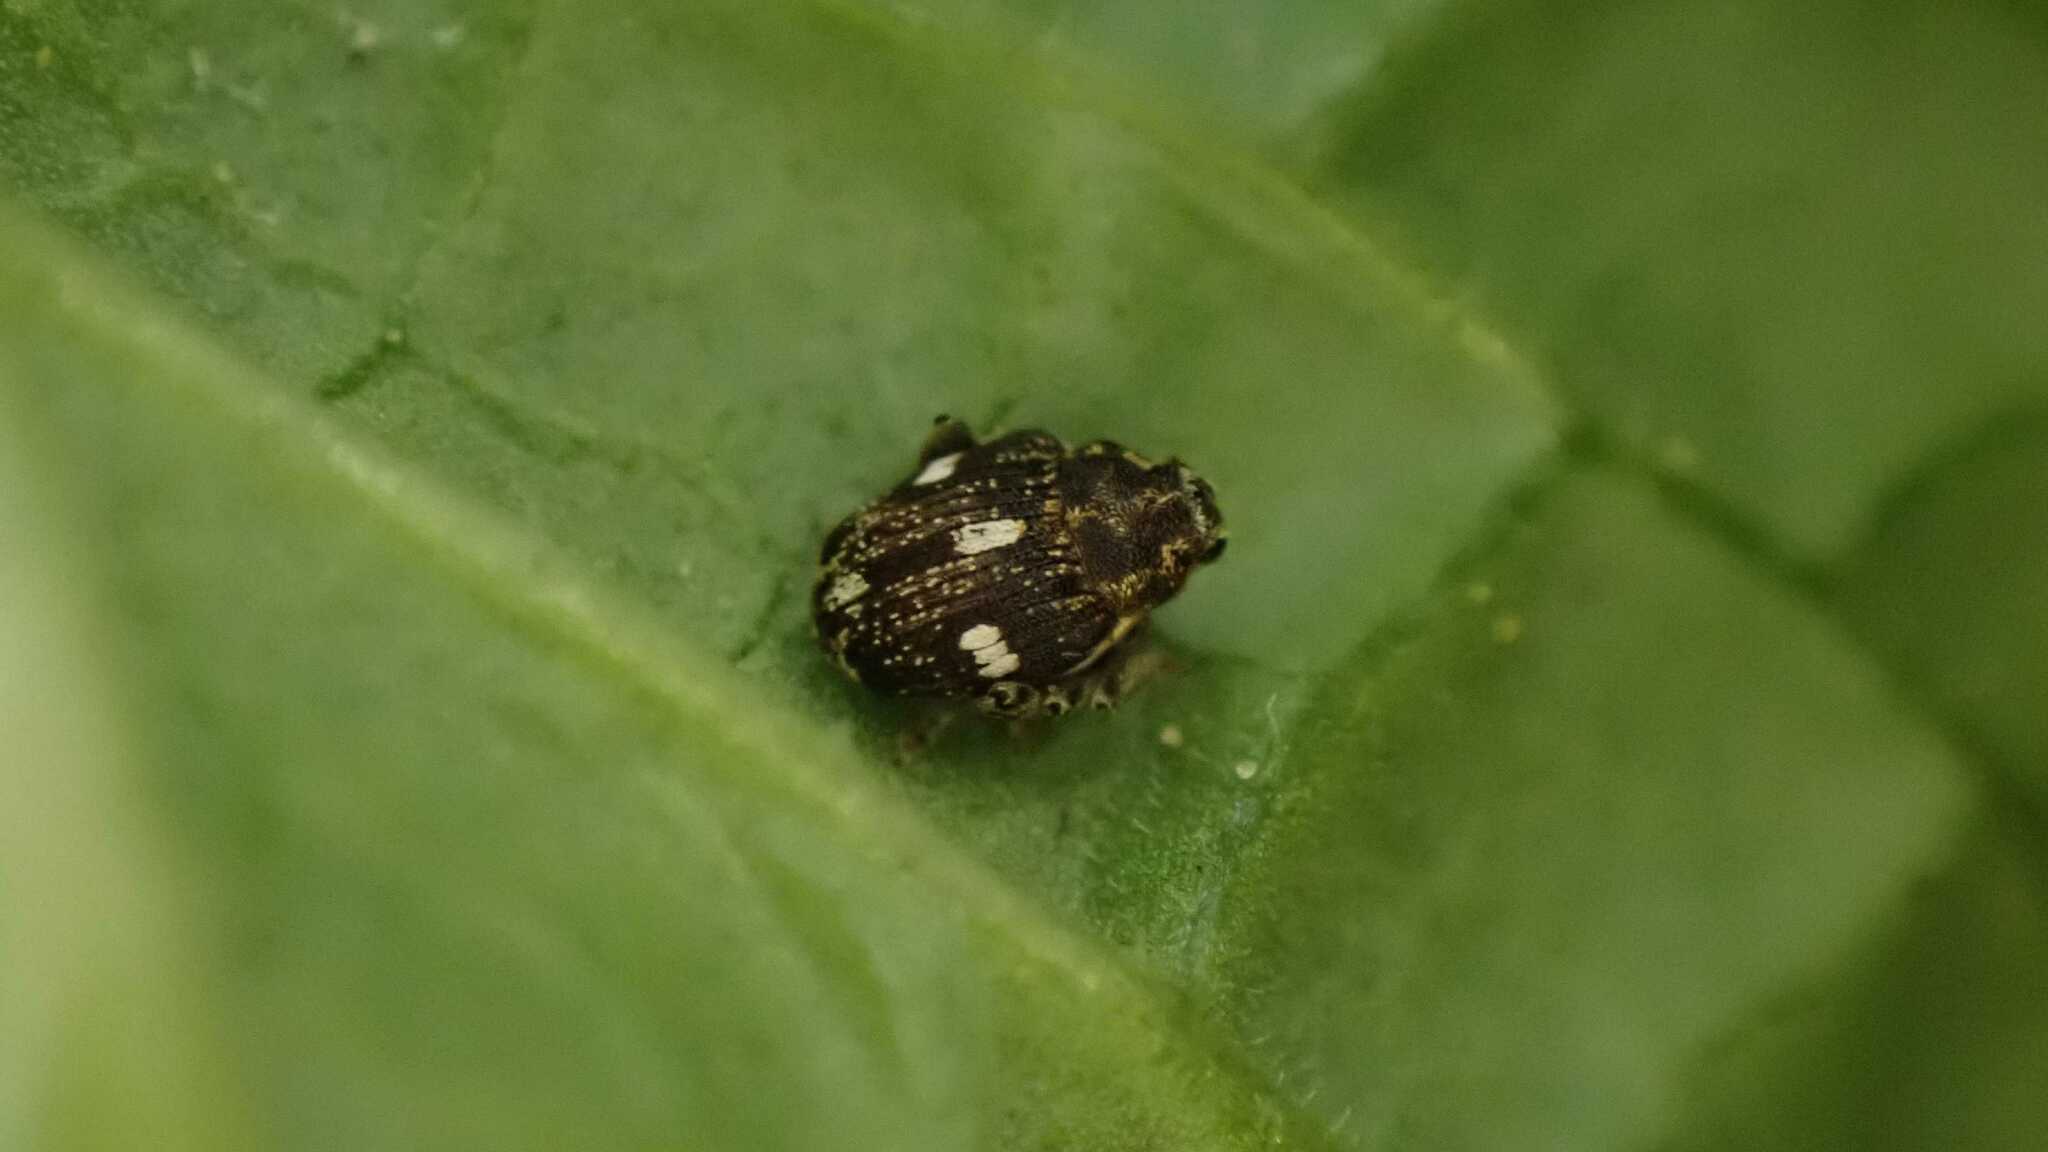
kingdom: Animalia
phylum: Arthropoda
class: Insecta
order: Coleoptera
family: Curculionidae
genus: Nedyus
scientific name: Nedyus quadrimaculatus
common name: Small nettle weevil
